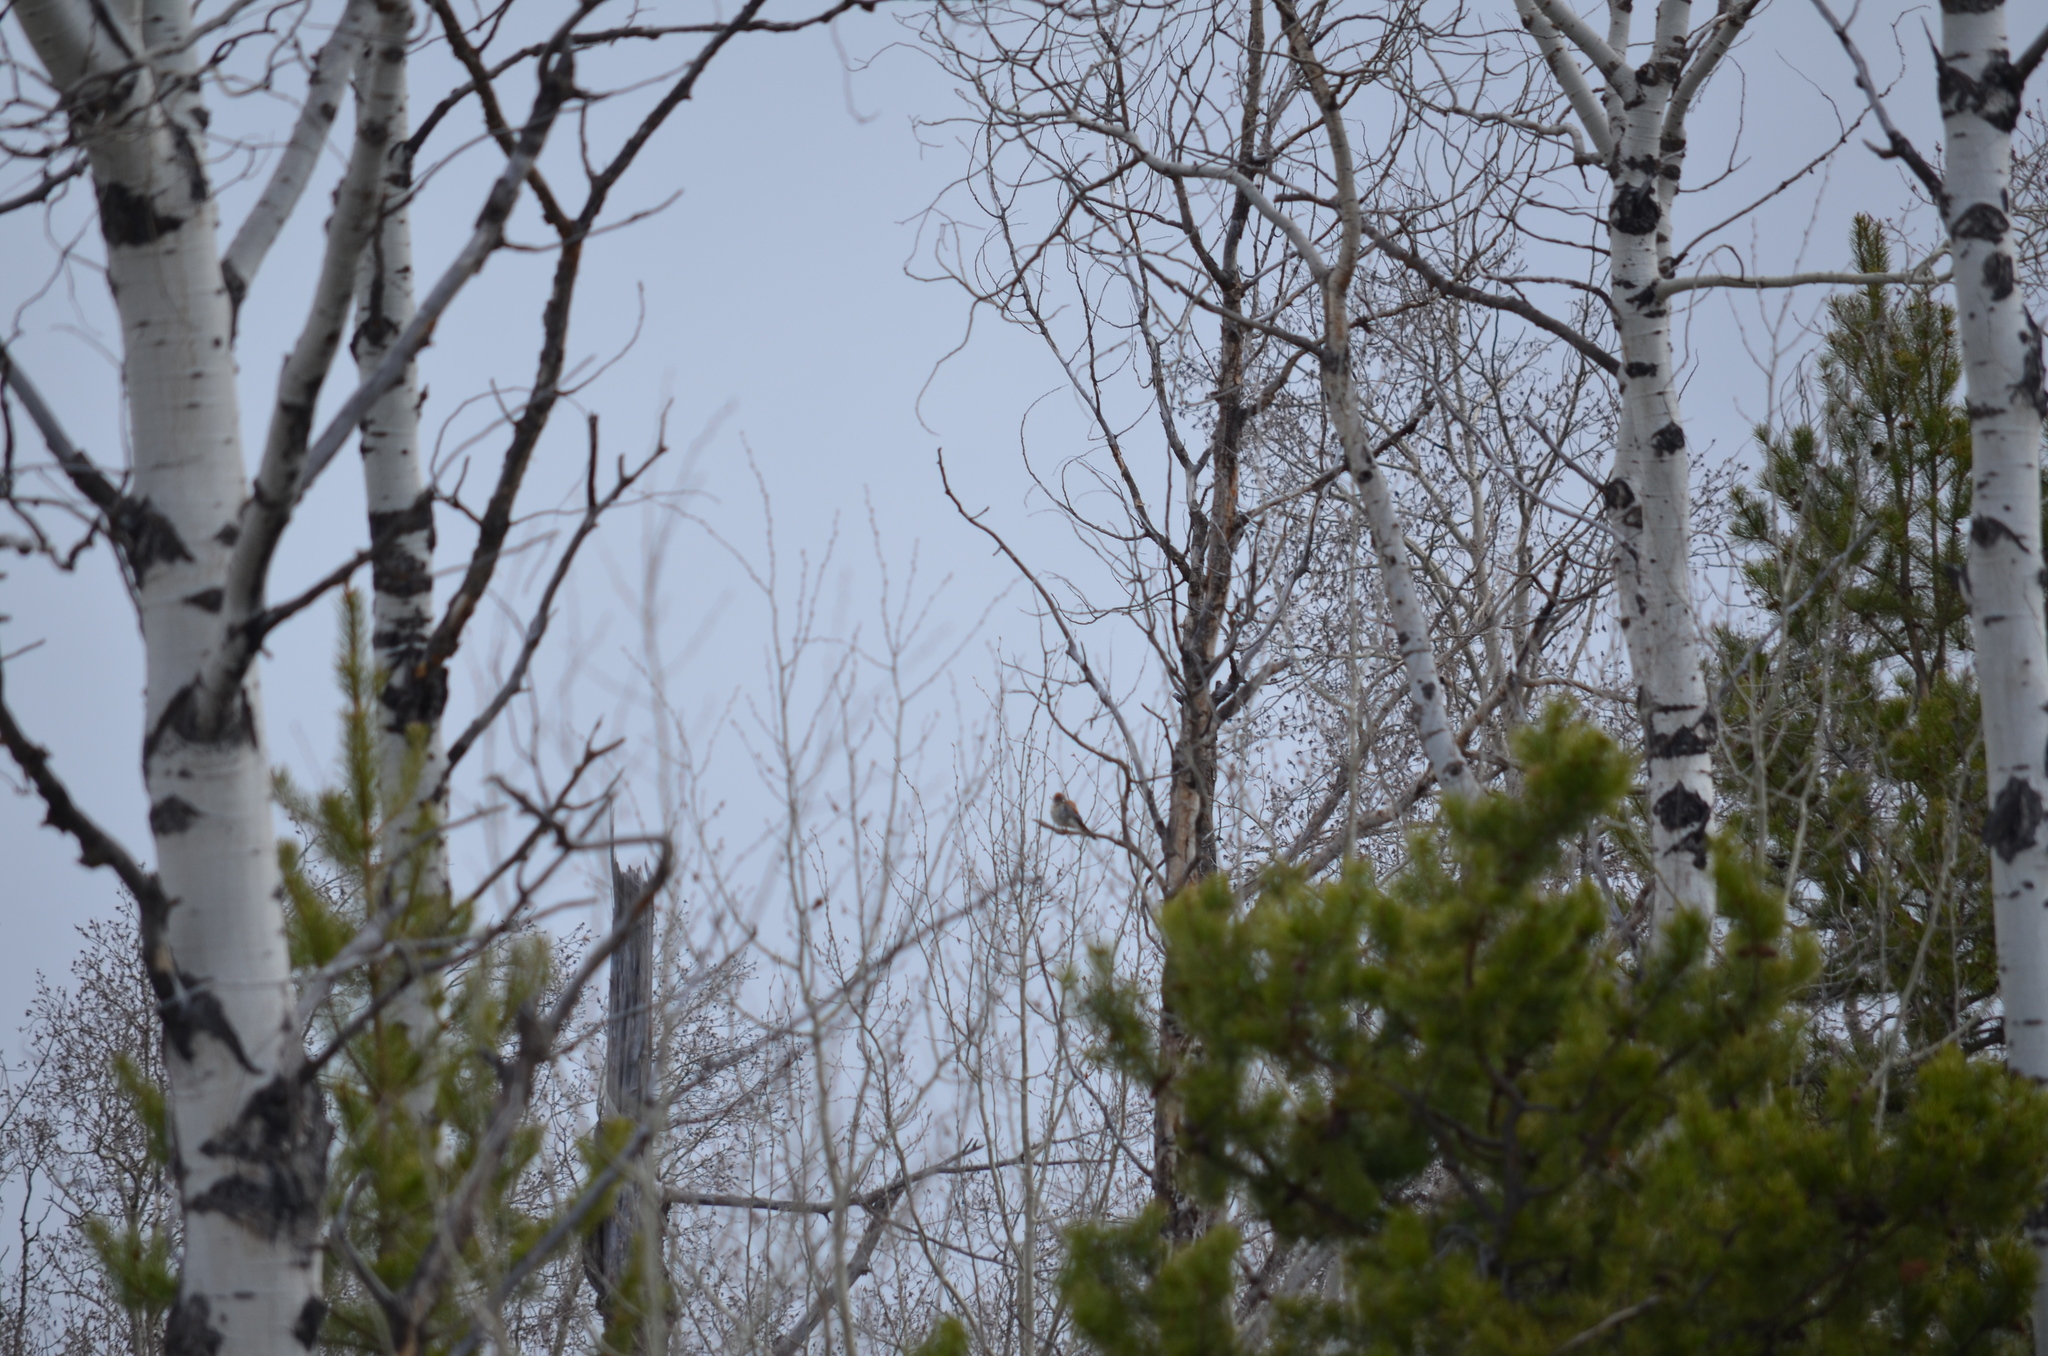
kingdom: Animalia
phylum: Chordata
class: Aves
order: Falconiformes
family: Falconidae
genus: Falco
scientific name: Falco sparverius
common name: American kestrel
